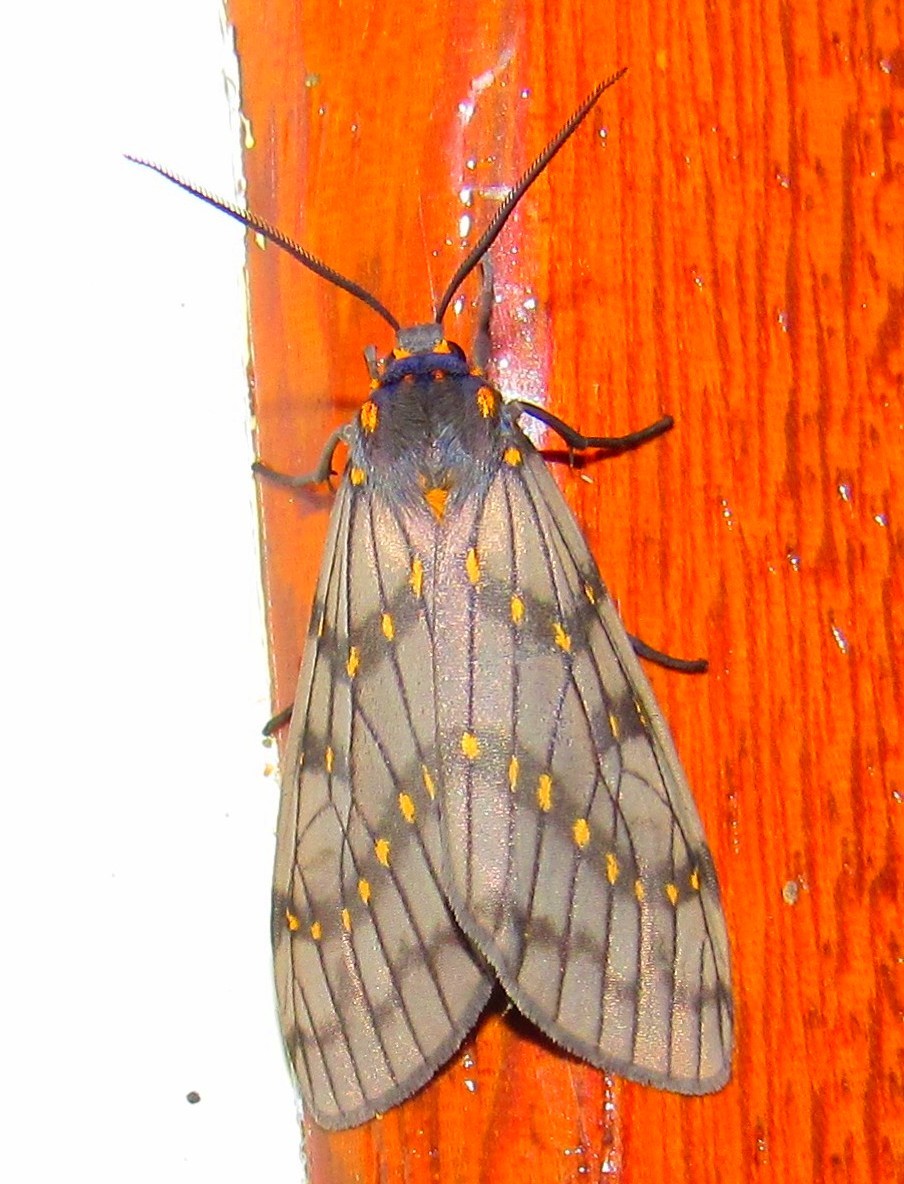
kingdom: Animalia
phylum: Arthropoda
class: Insecta
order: Lepidoptera
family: Erebidae
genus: Machadoia
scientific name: Machadoia xanthosticta
